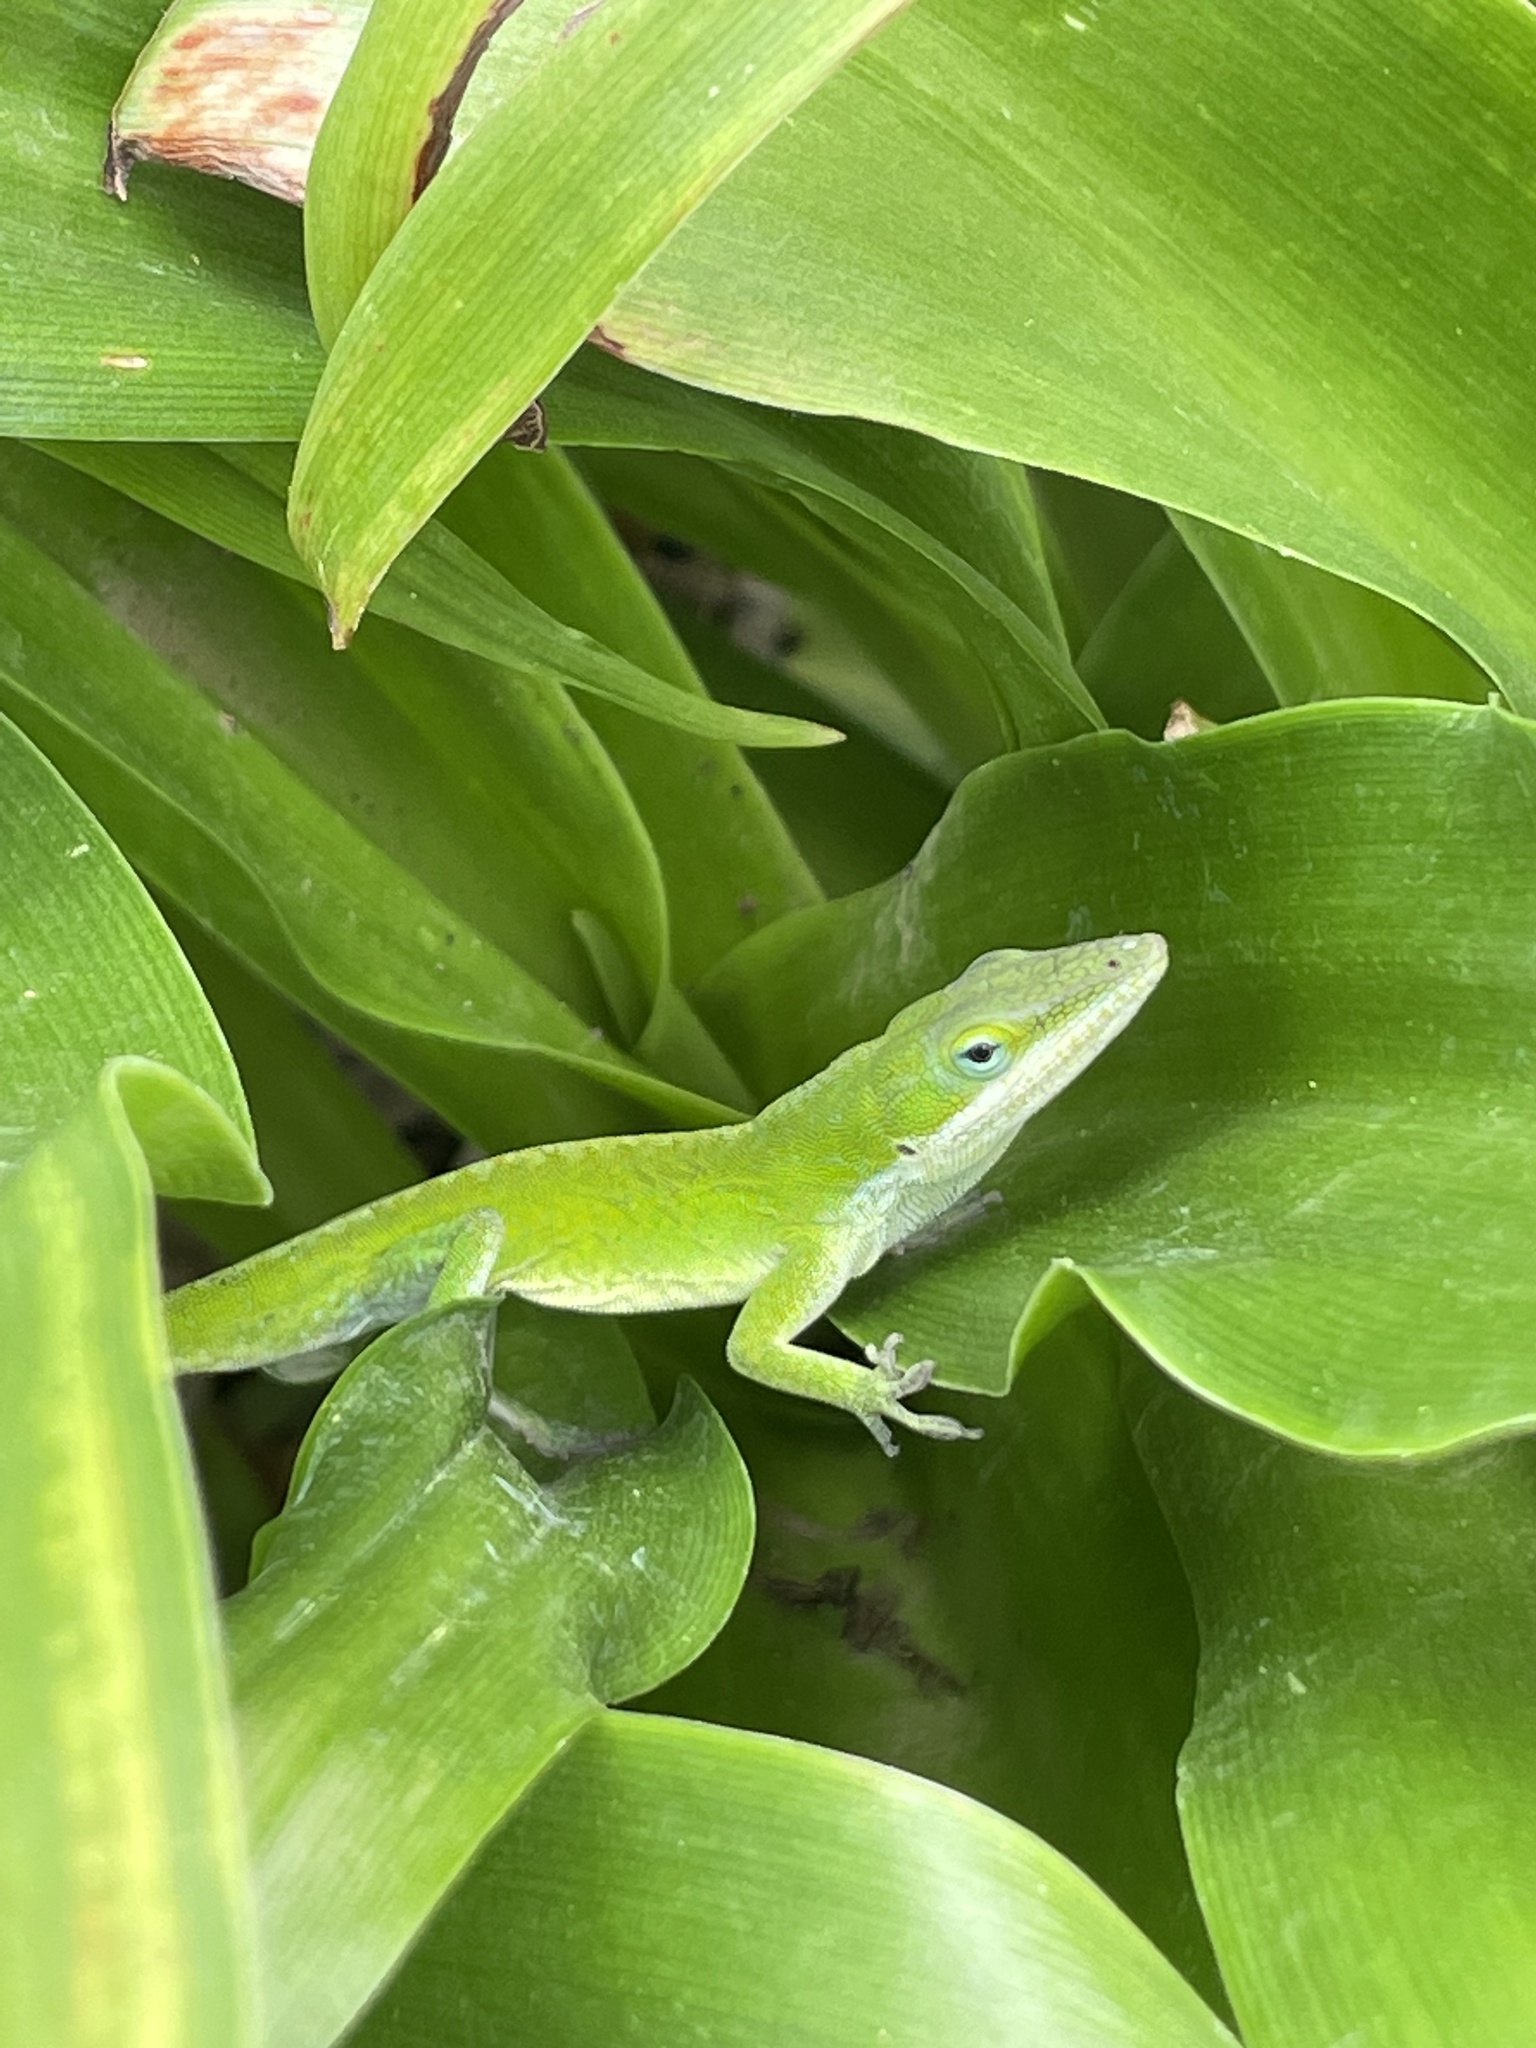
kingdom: Animalia
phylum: Chordata
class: Squamata
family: Dactyloidae
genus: Anolis
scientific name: Anolis carolinensis
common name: Green anole
